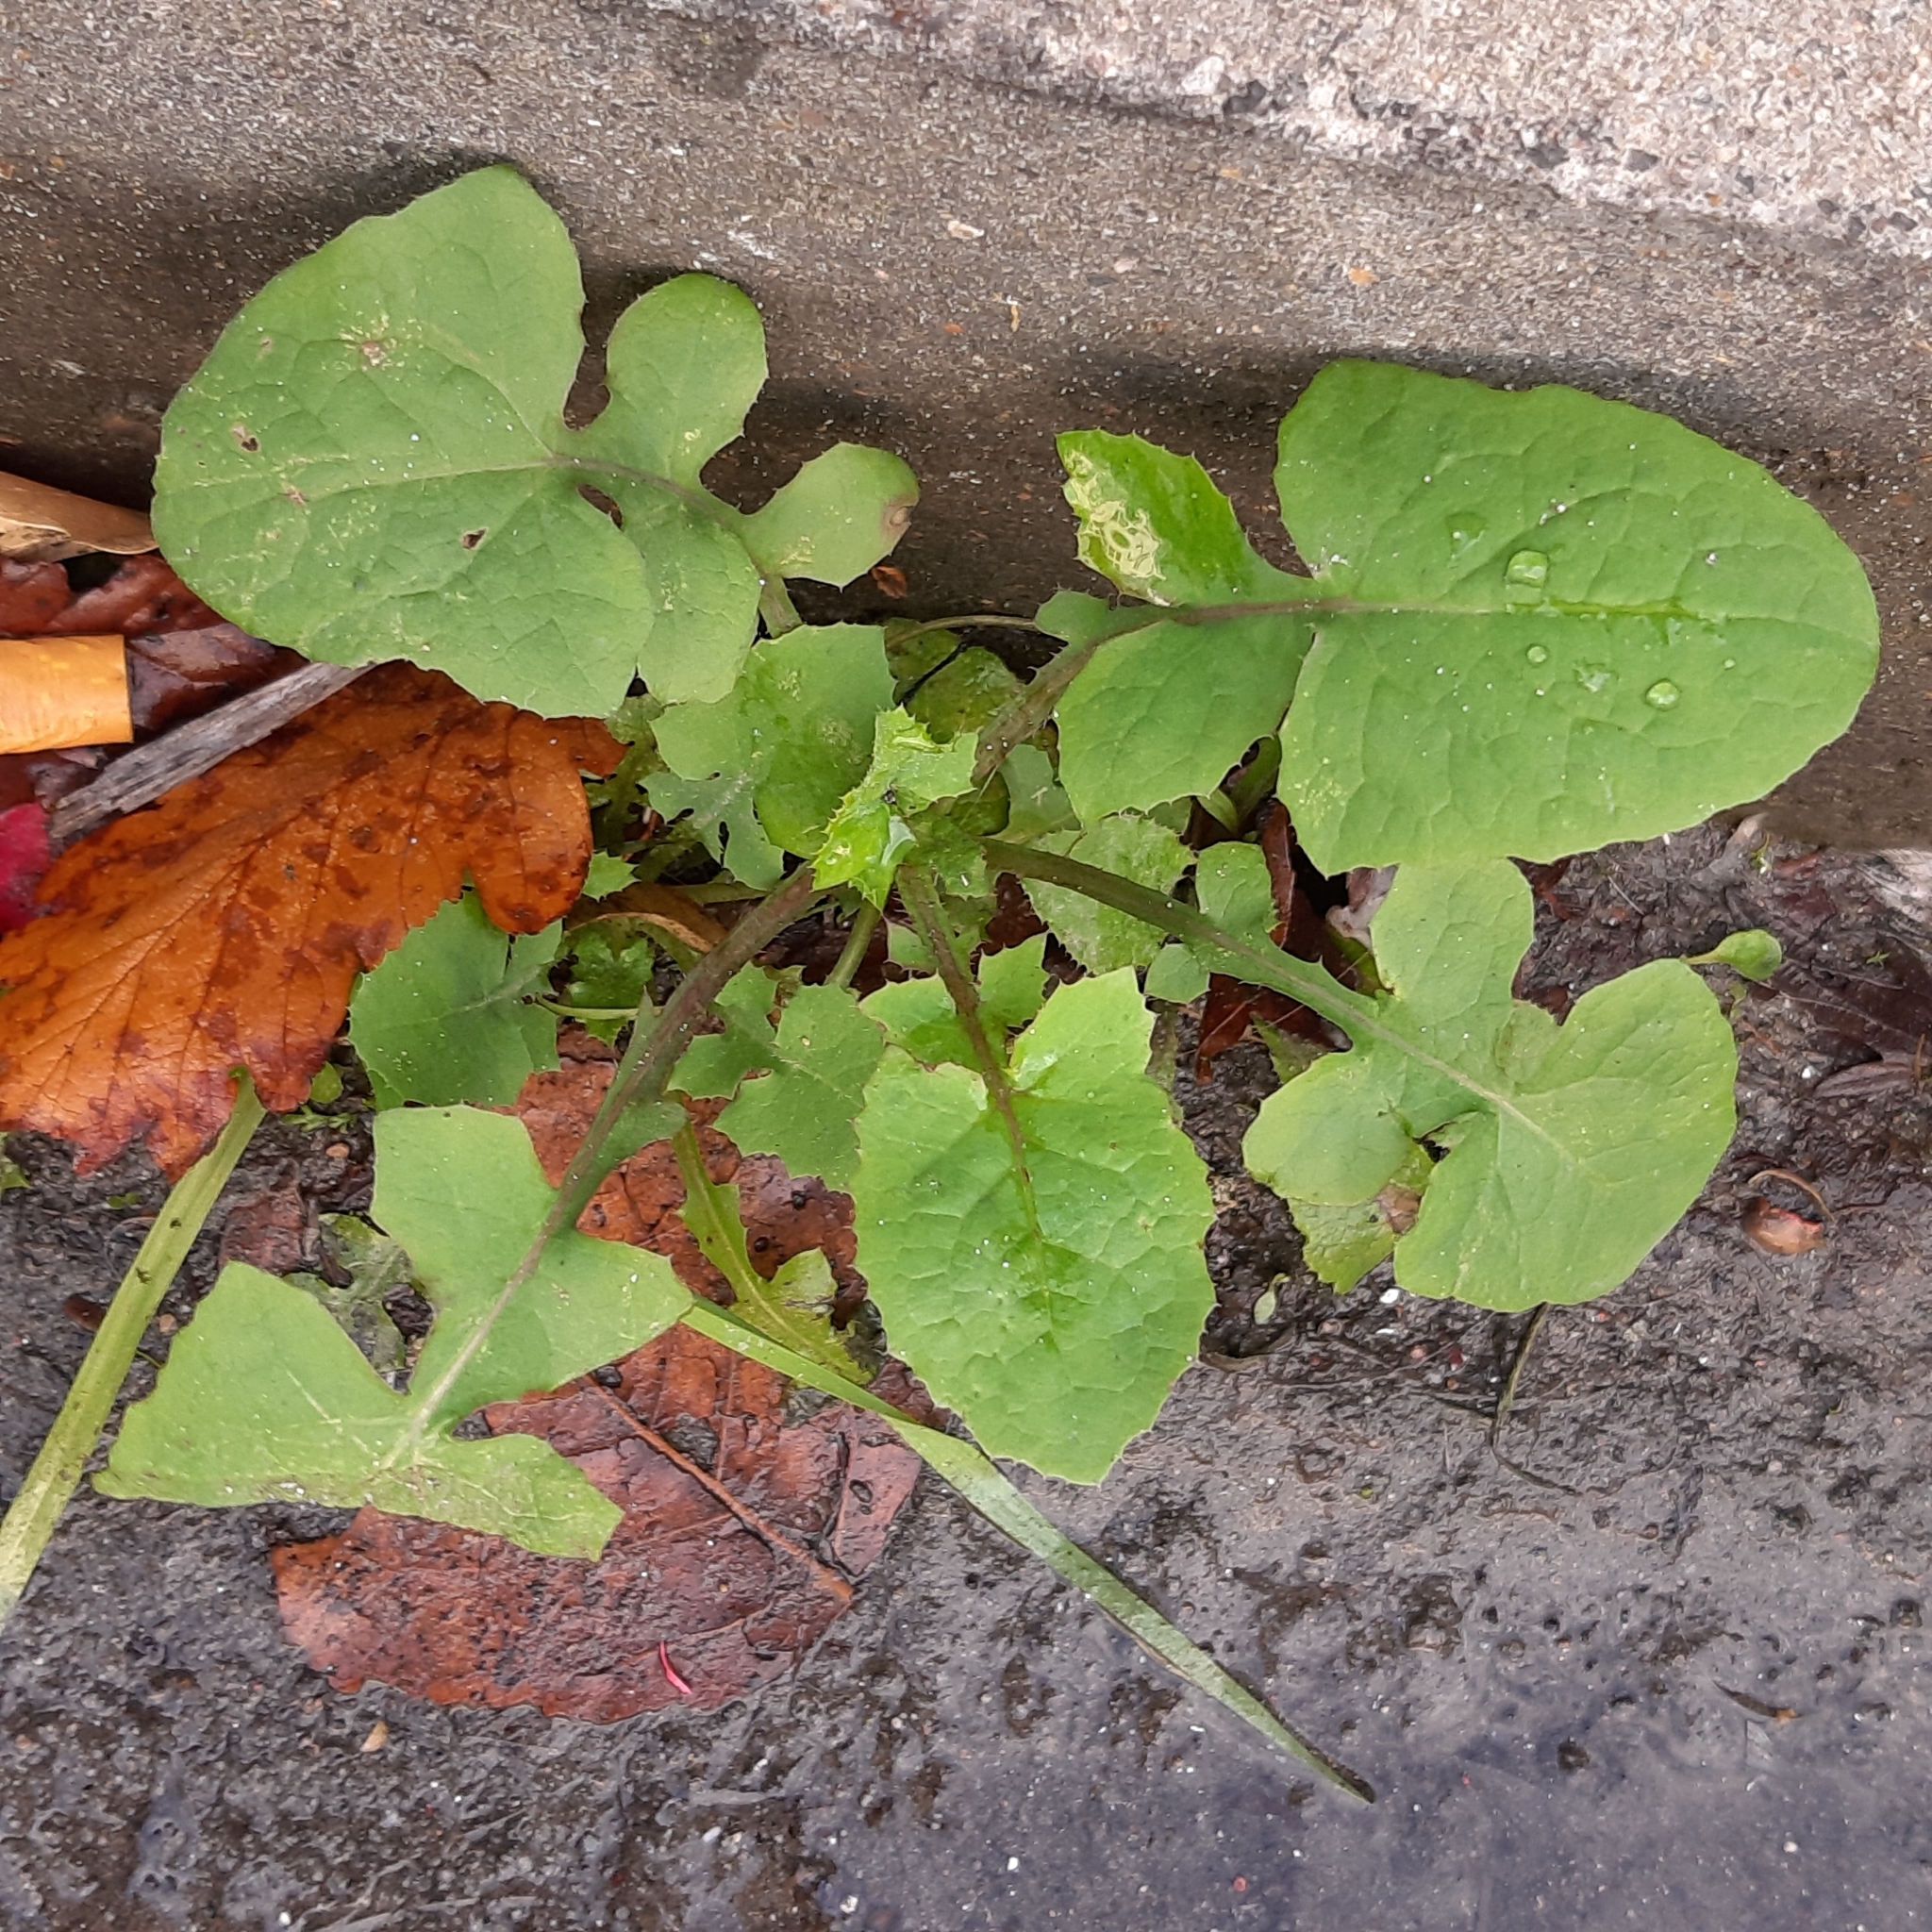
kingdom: Plantae
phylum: Tracheophyta
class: Magnoliopsida
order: Asterales
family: Asteraceae
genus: Sonchus
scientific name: Sonchus oleraceus
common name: Common sowthistle
